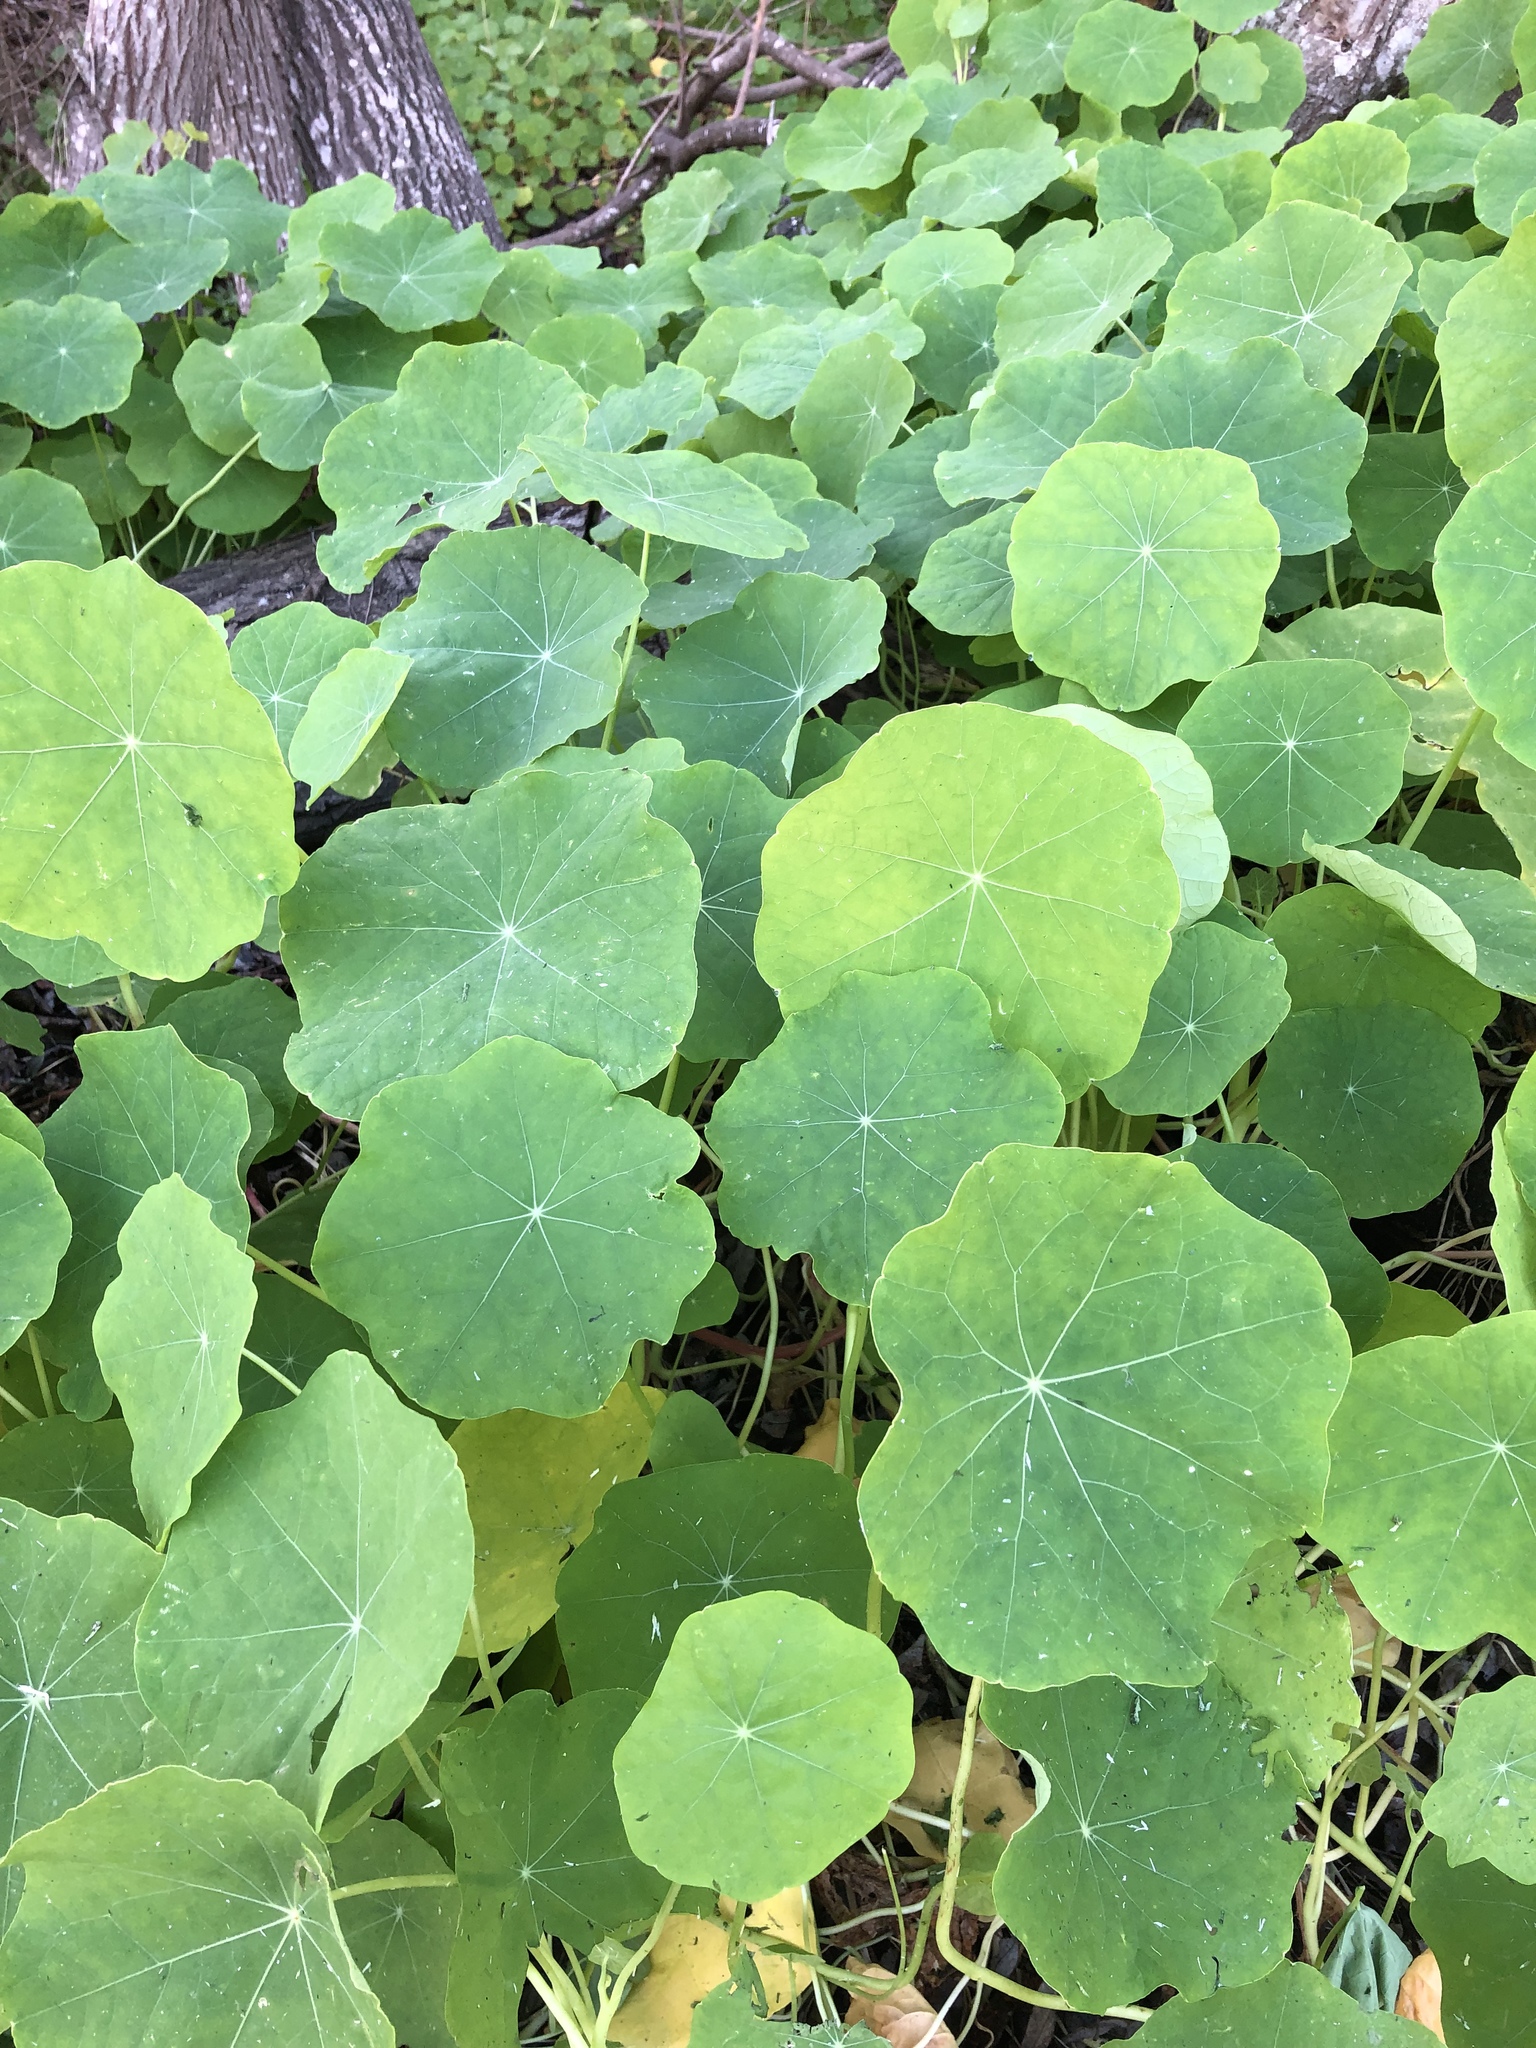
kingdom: Plantae
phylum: Tracheophyta
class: Magnoliopsida
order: Brassicales
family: Tropaeolaceae
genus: Tropaeolum
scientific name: Tropaeolum majus
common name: Nasturtium
